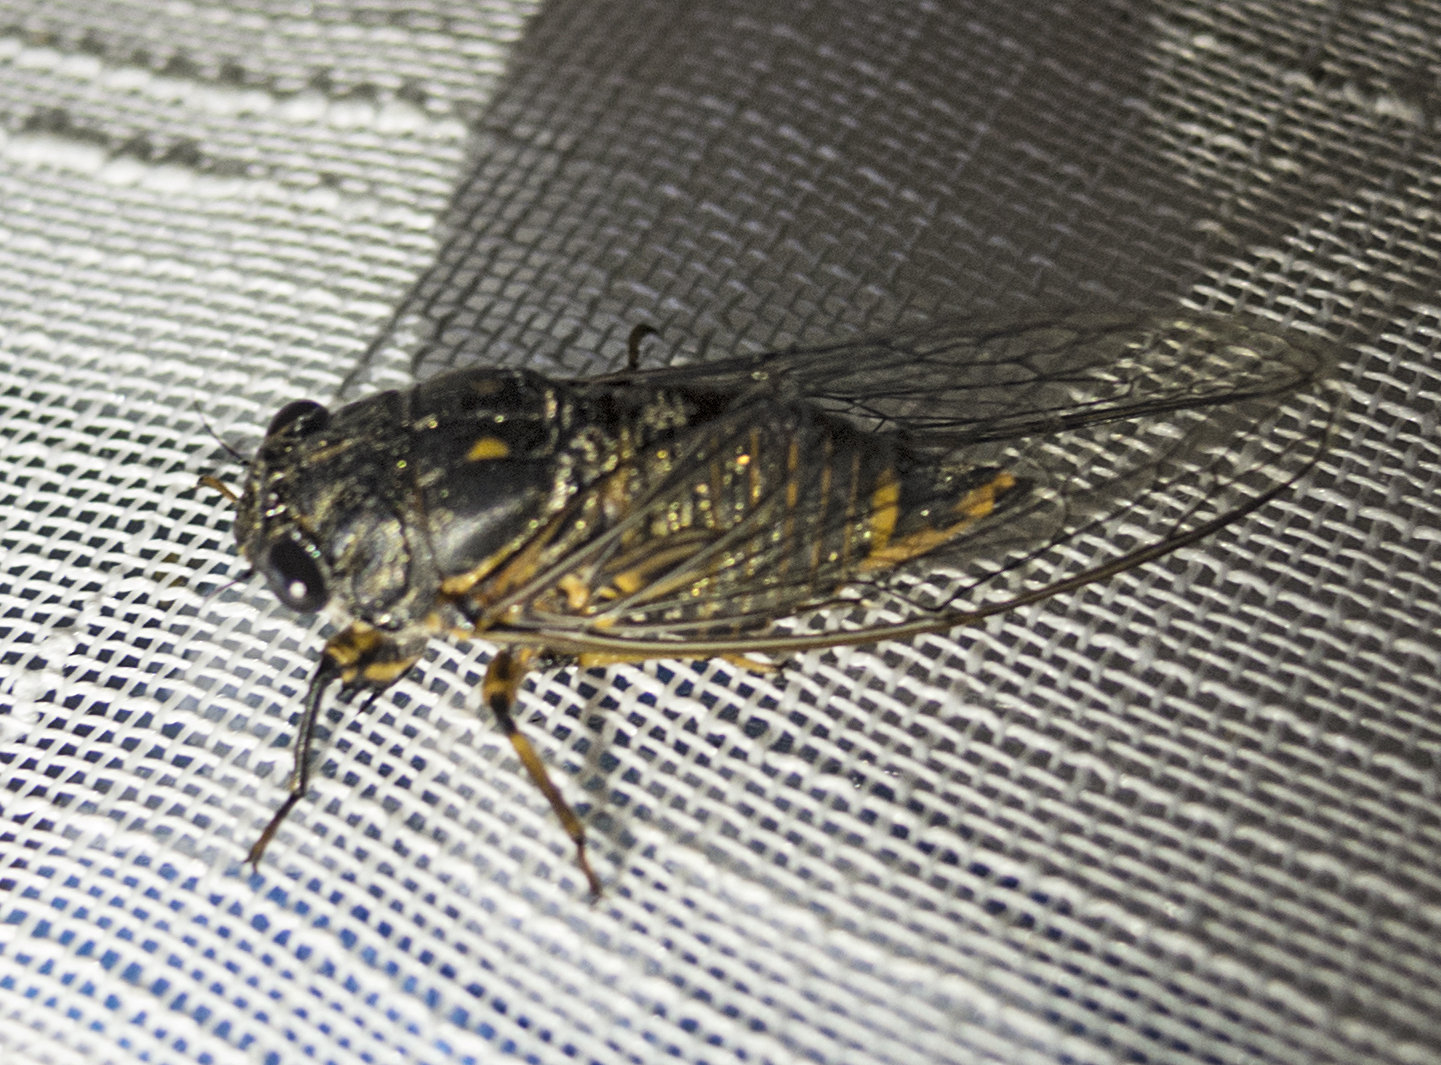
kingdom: Animalia
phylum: Arthropoda
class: Insecta
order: Hemiptera
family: Cicadidae
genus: Dimissalna
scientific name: Dimissalna dimissa
